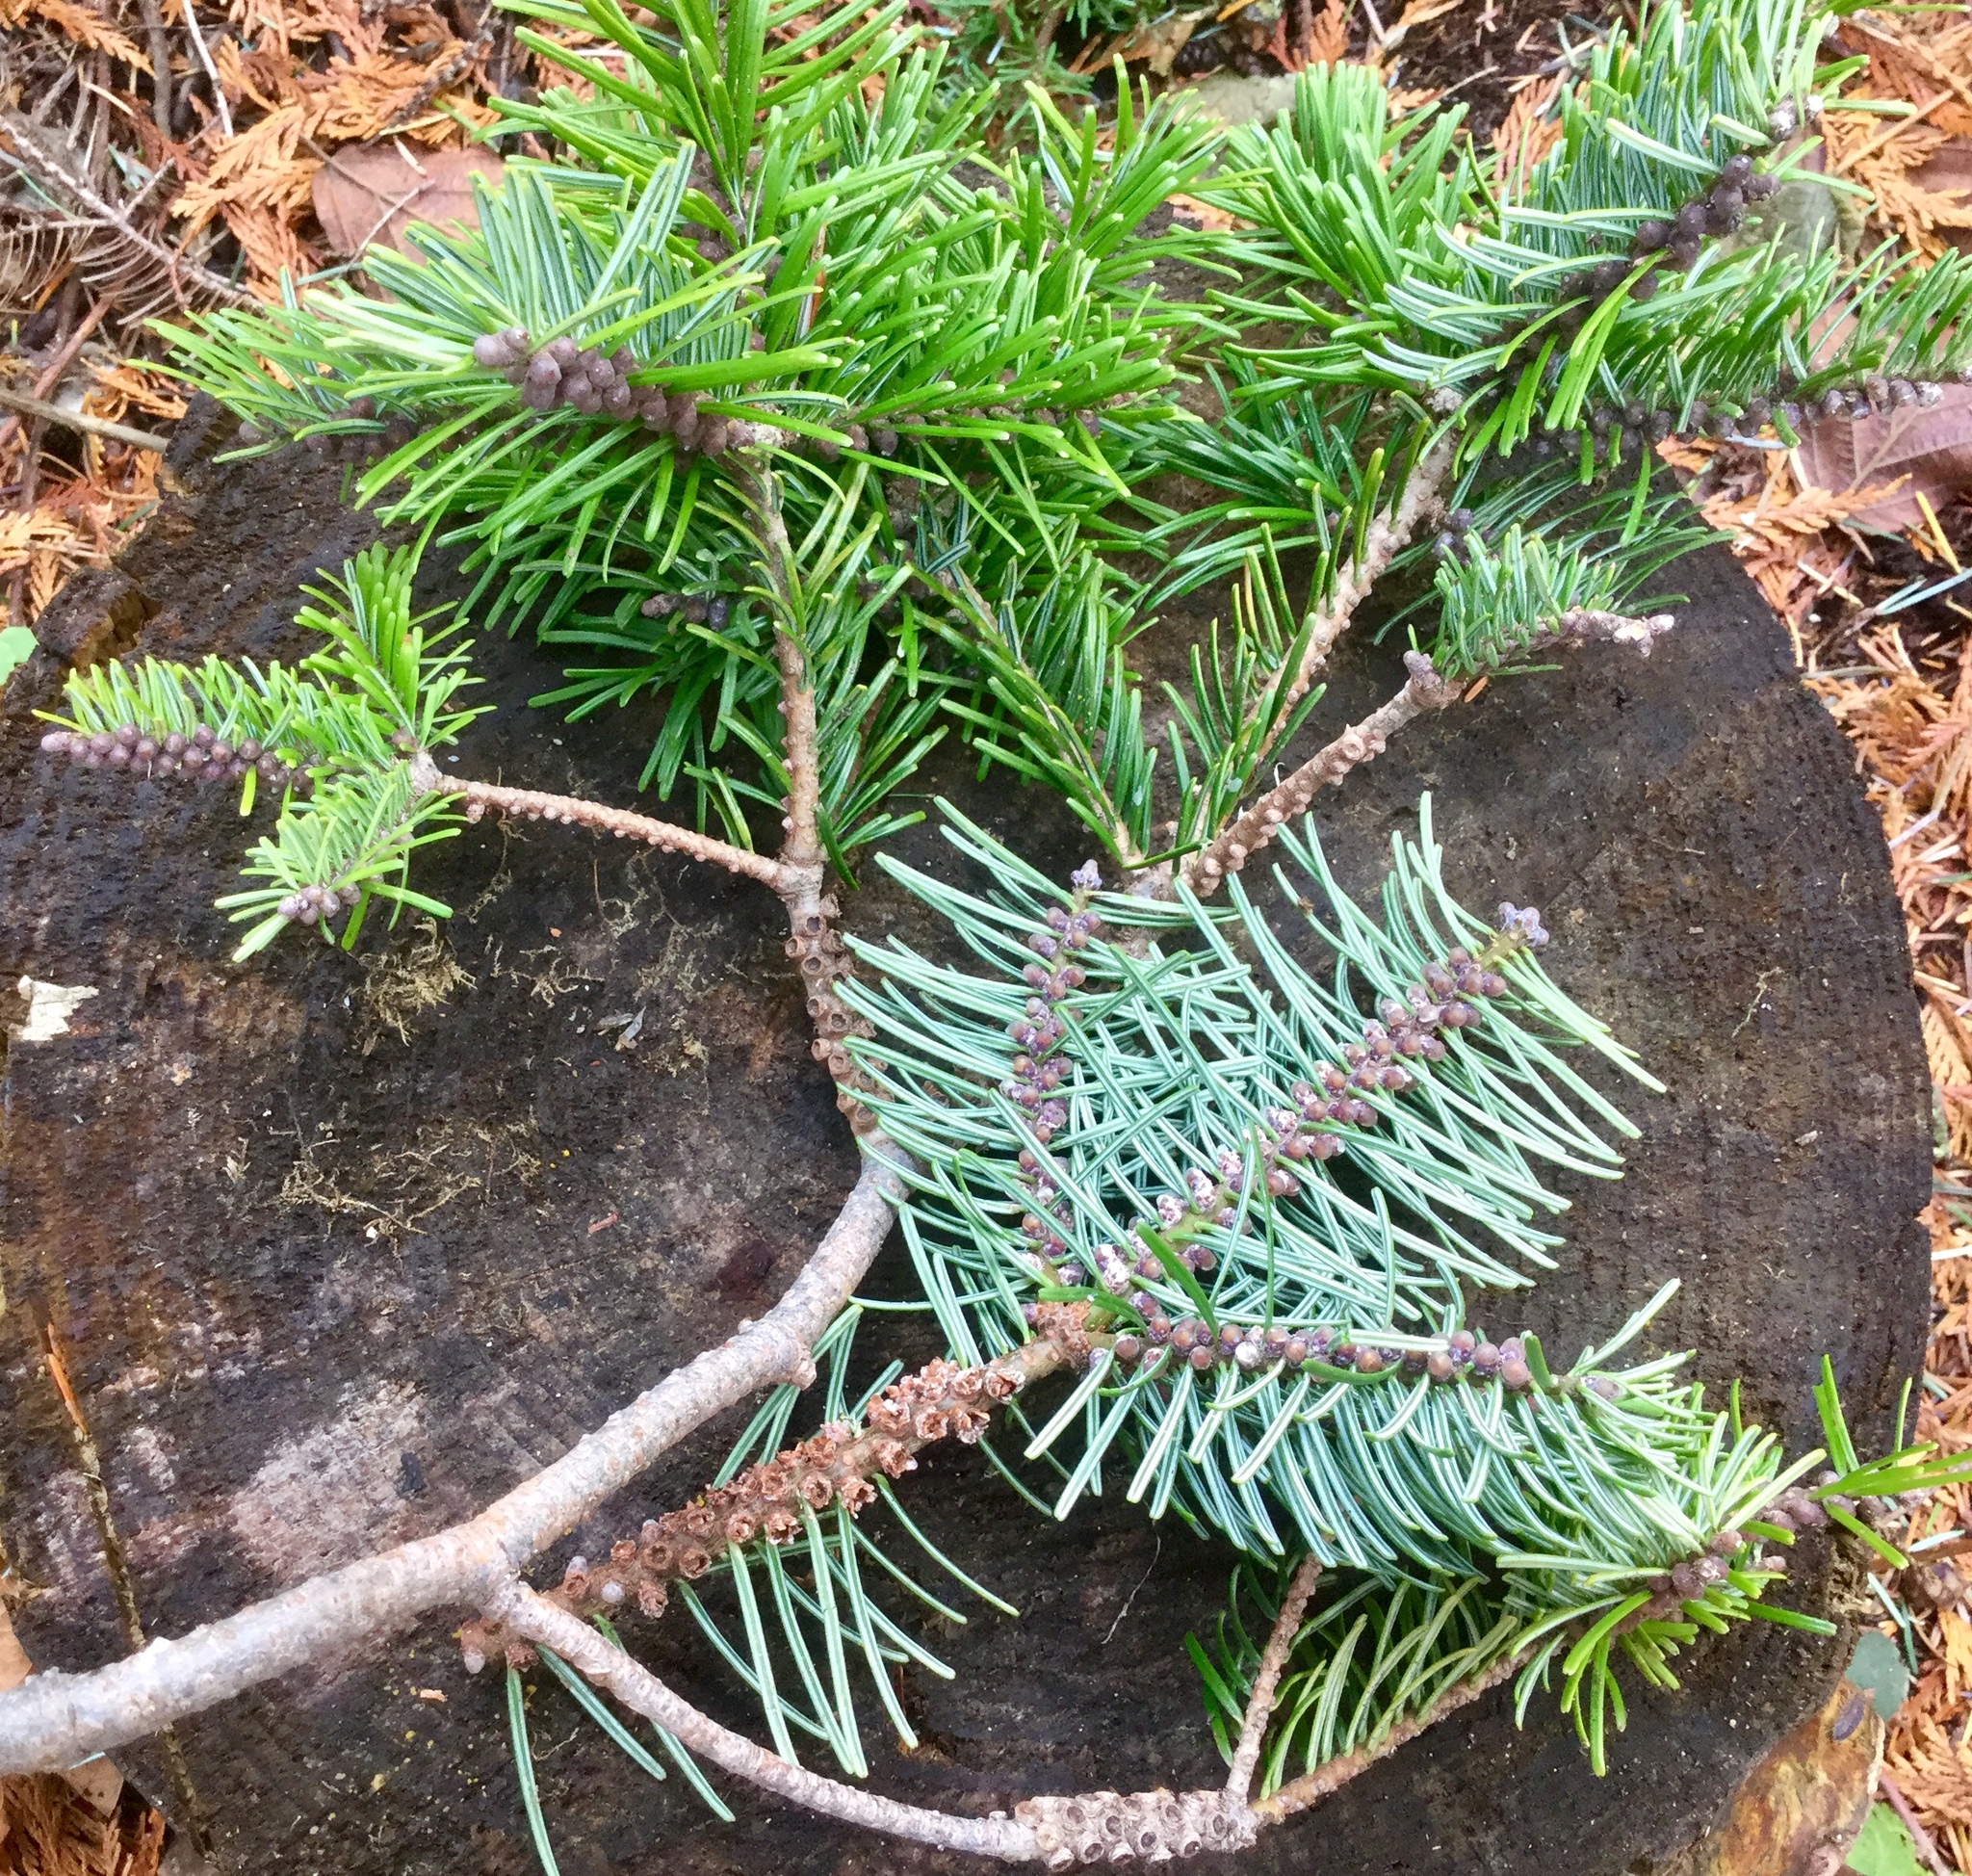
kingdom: Plantae
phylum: Tracheophyta
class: Pinopsida
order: Pinales
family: Pinaceae
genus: Abies
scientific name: Abies grandis
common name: Giant fir
